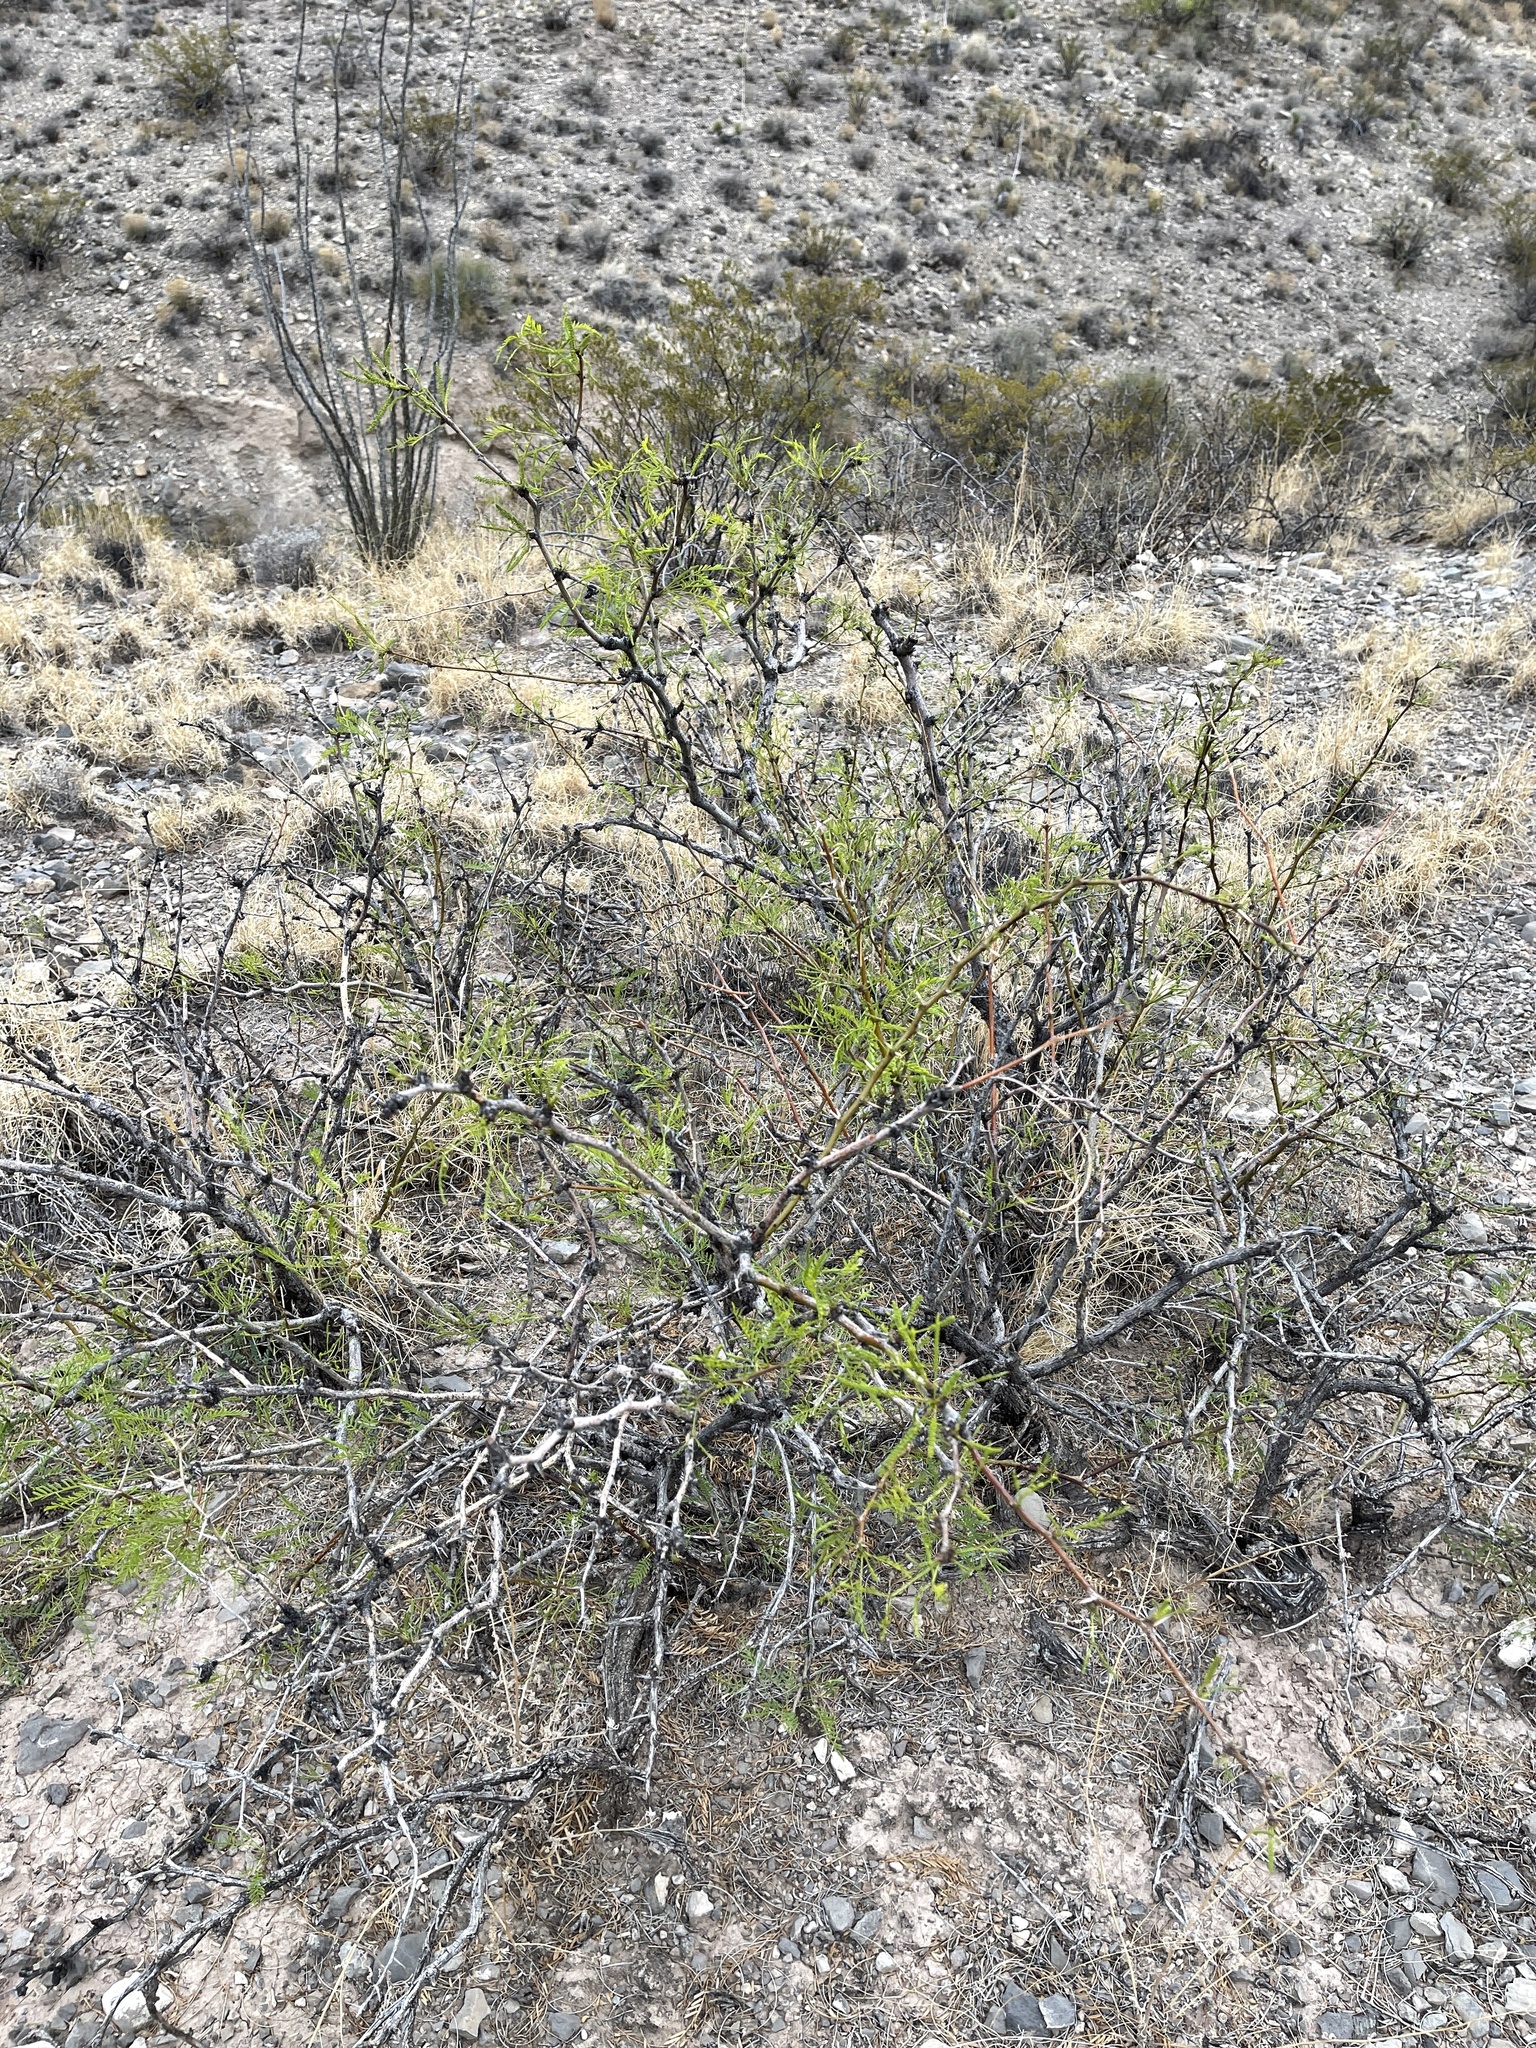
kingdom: Plantae
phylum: Tracheophyta
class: Magnoliopsida
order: Fabales
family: Fabaceae
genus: Prosopis
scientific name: Prosopis glandulosa
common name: Honey mesquite
